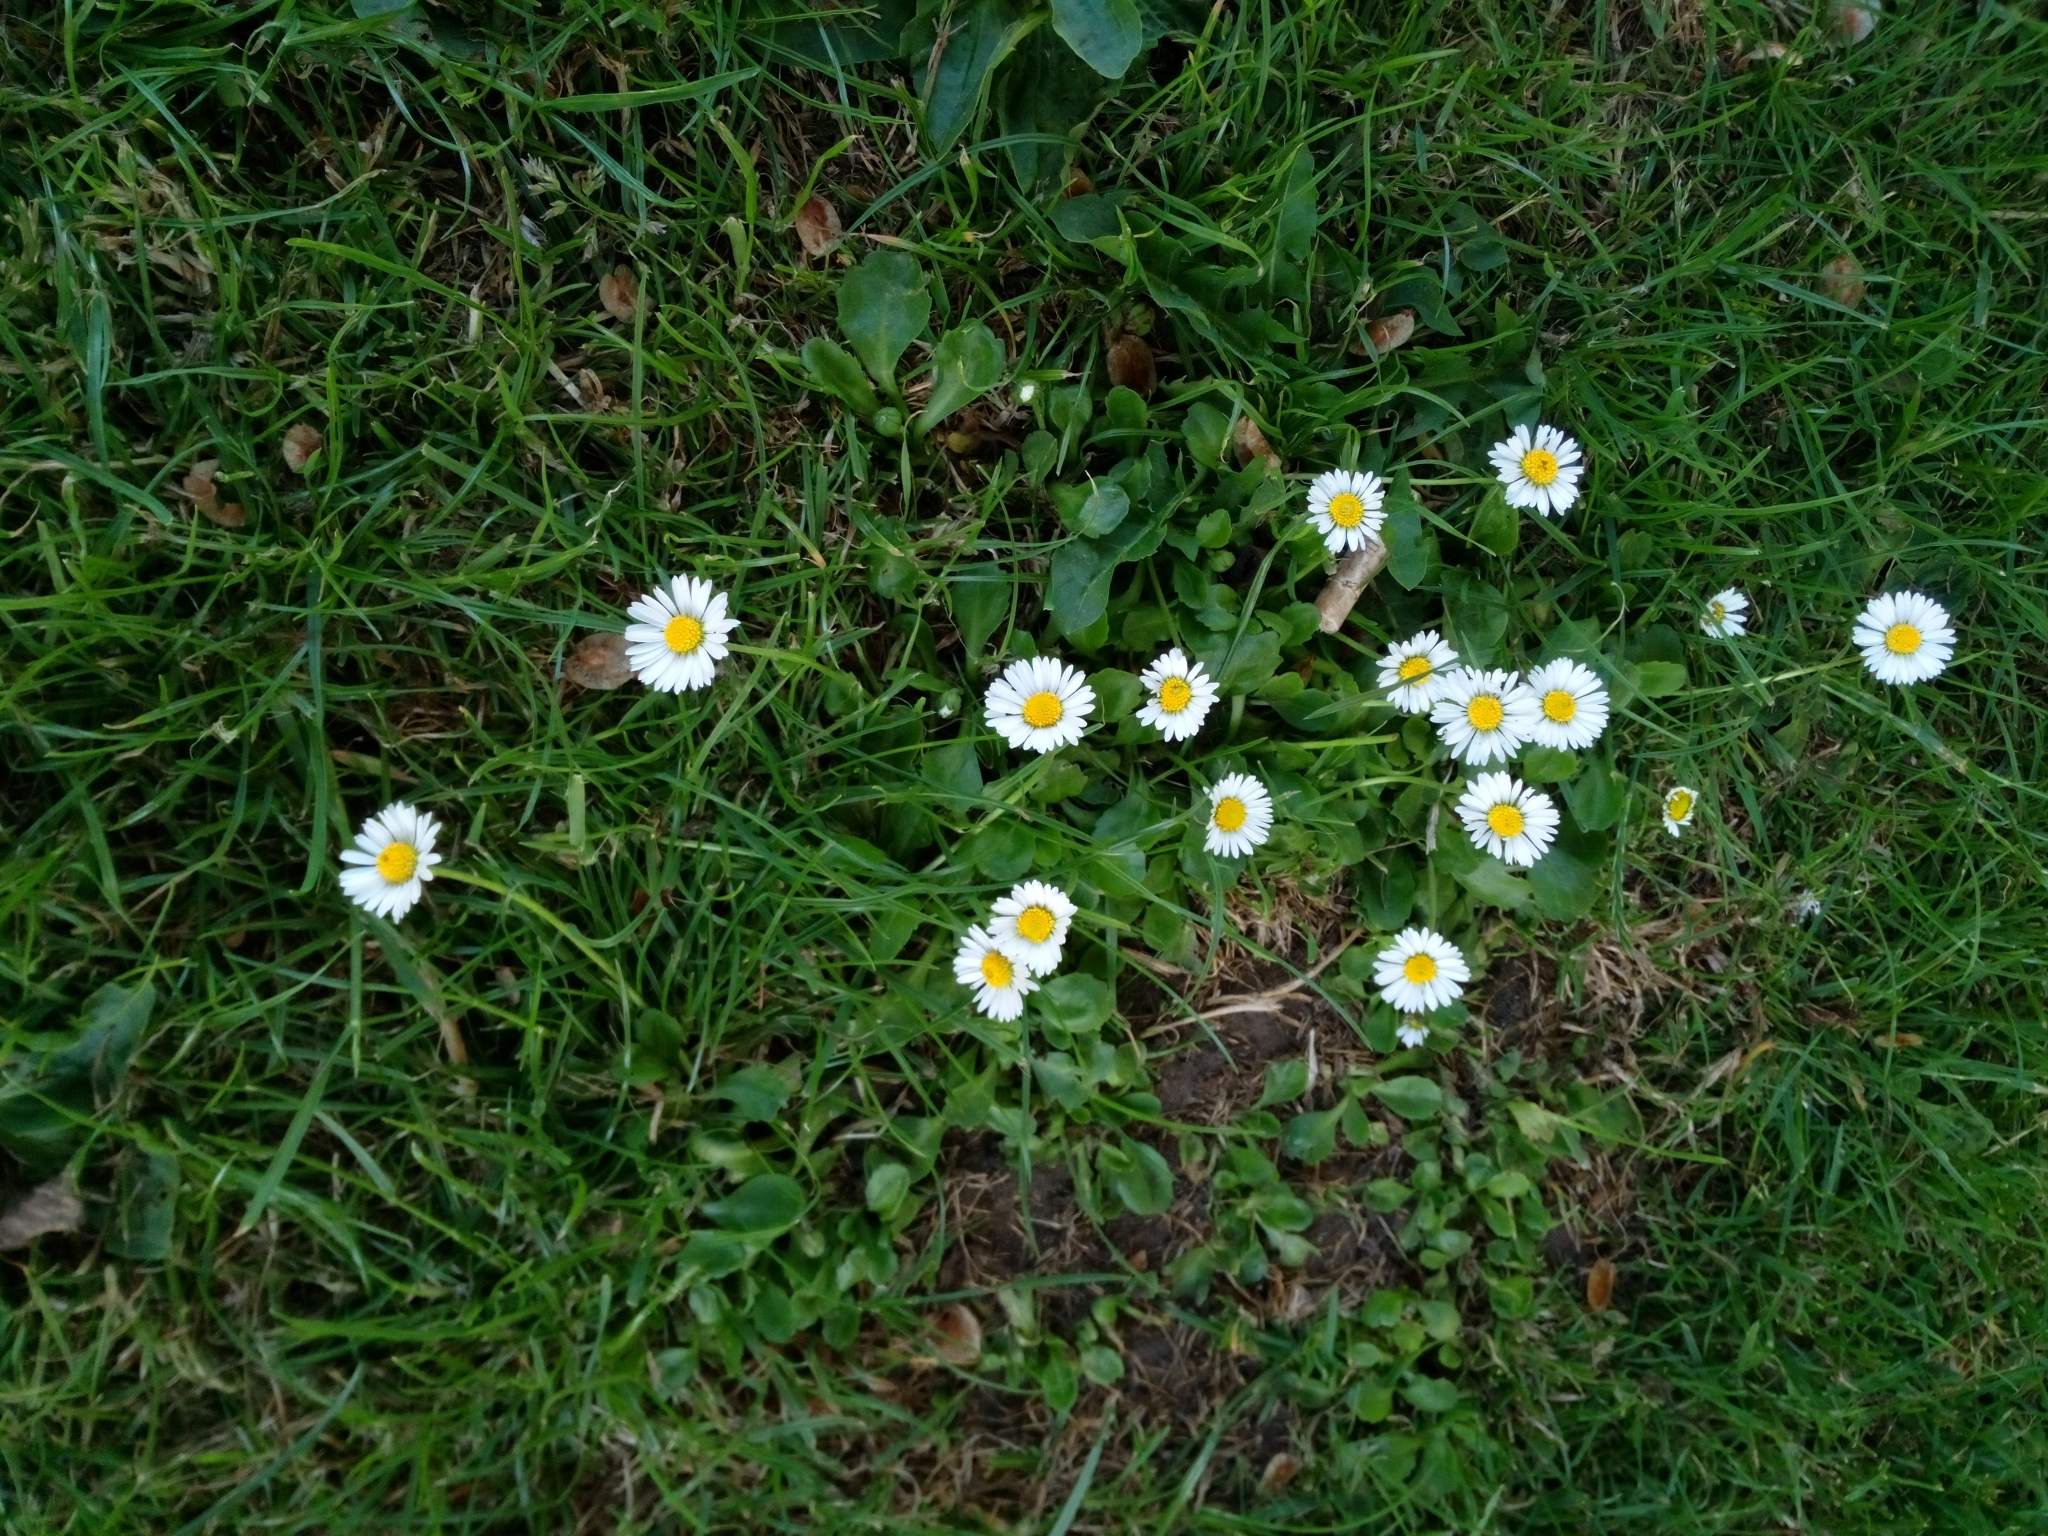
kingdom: Plantae
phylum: Tracheophyta
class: Magnoliopsida
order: Asterales
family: Asteraceae
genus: Bellis
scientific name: Bellis perennis
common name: Lawndaisy
